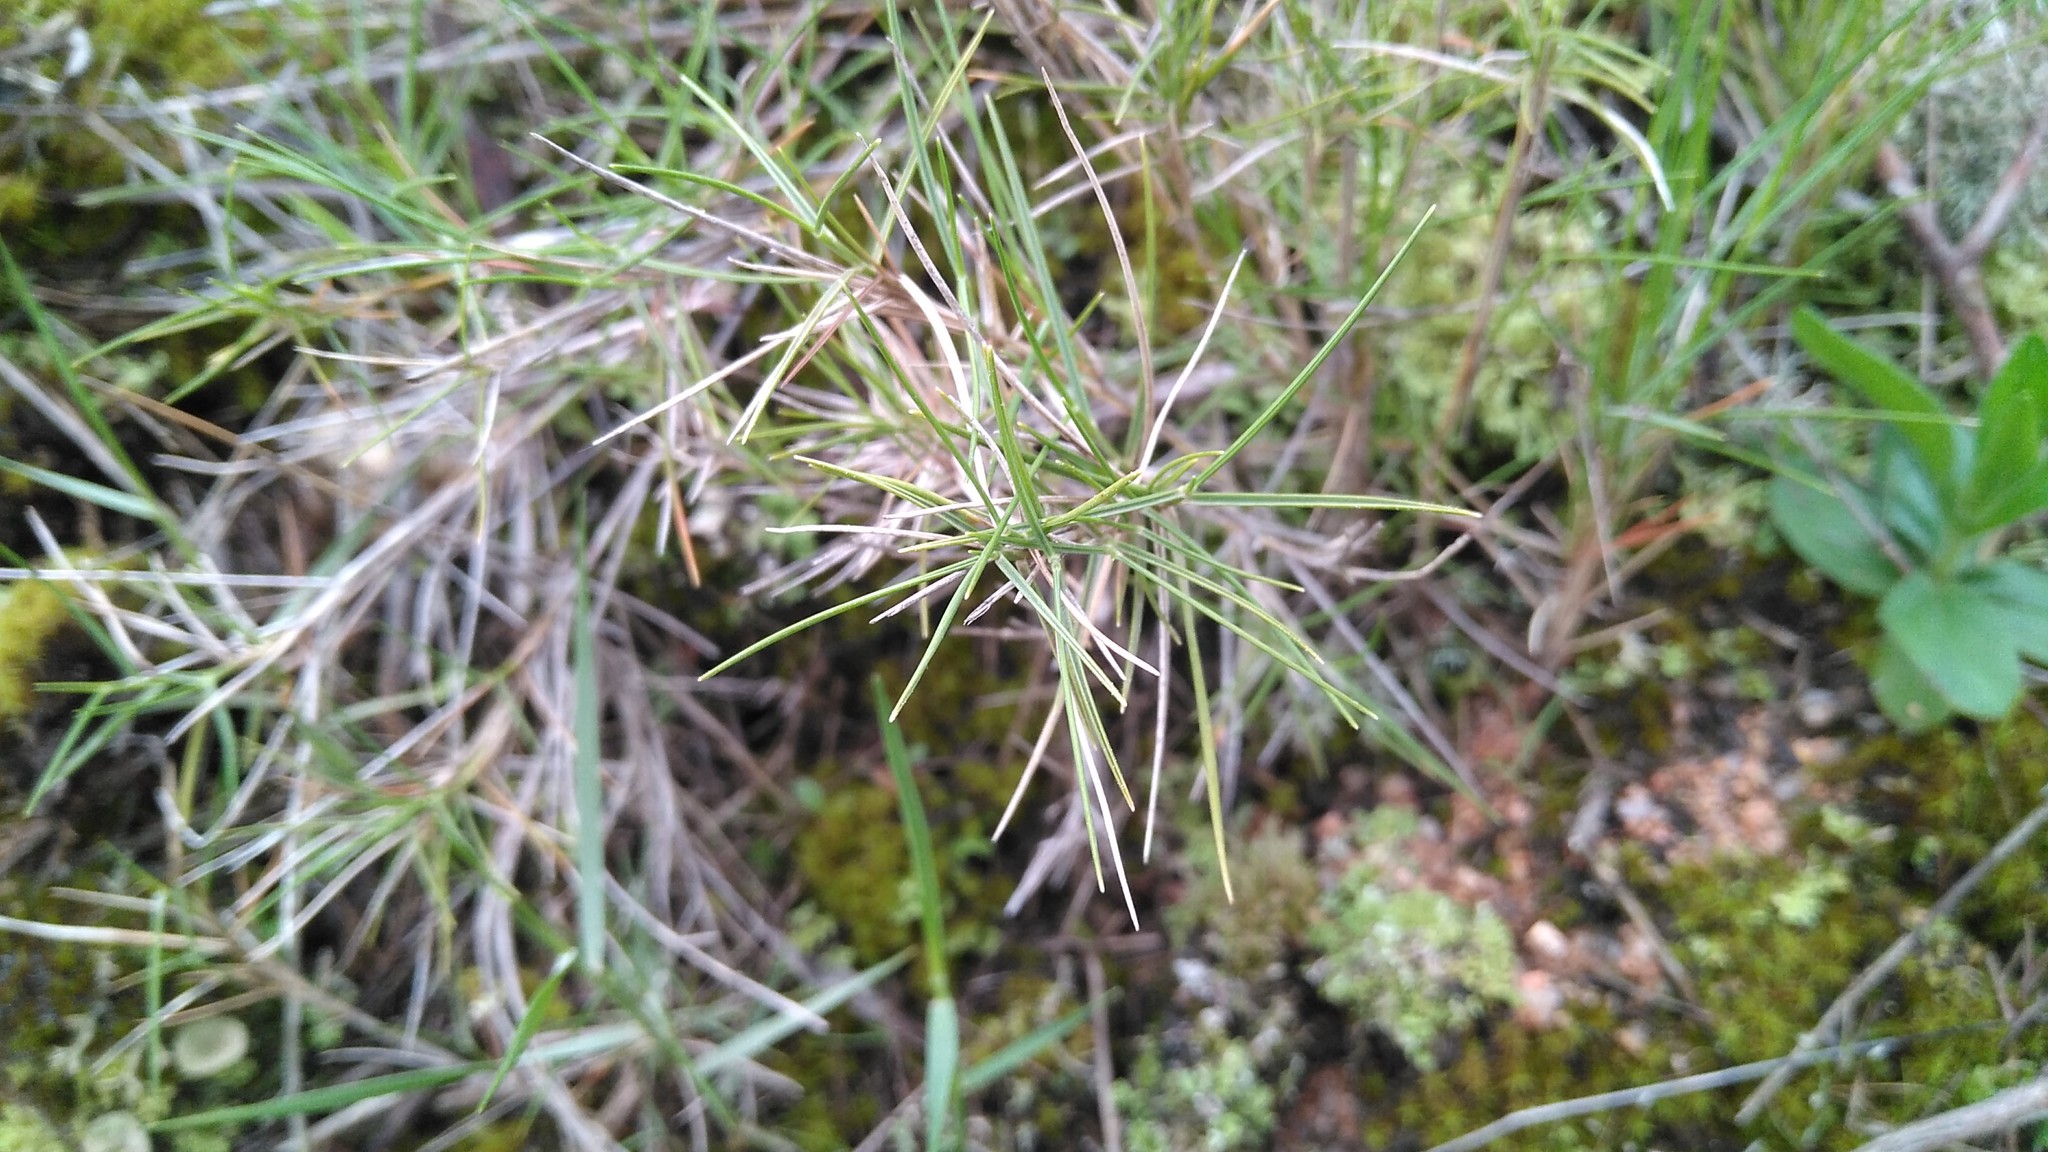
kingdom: Plantae
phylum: Tracheophyta
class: Liliopsida
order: Poales
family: Poaceae
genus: Brachypodium
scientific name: Brachypodium retusum
